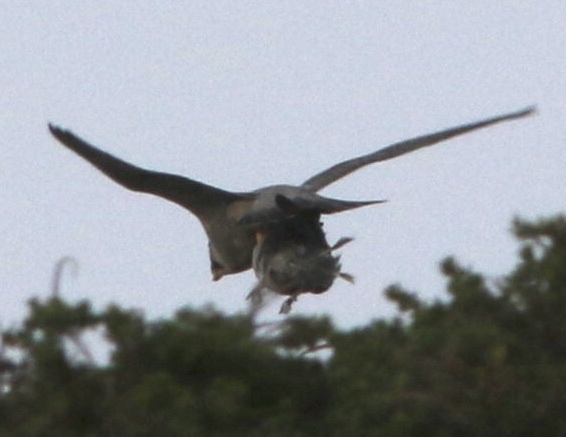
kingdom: Animalia
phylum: Chordata
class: Aves
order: Falconiformes
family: Falconidae
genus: Falco
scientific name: Falco peregrinus
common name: Peregrine falcon
